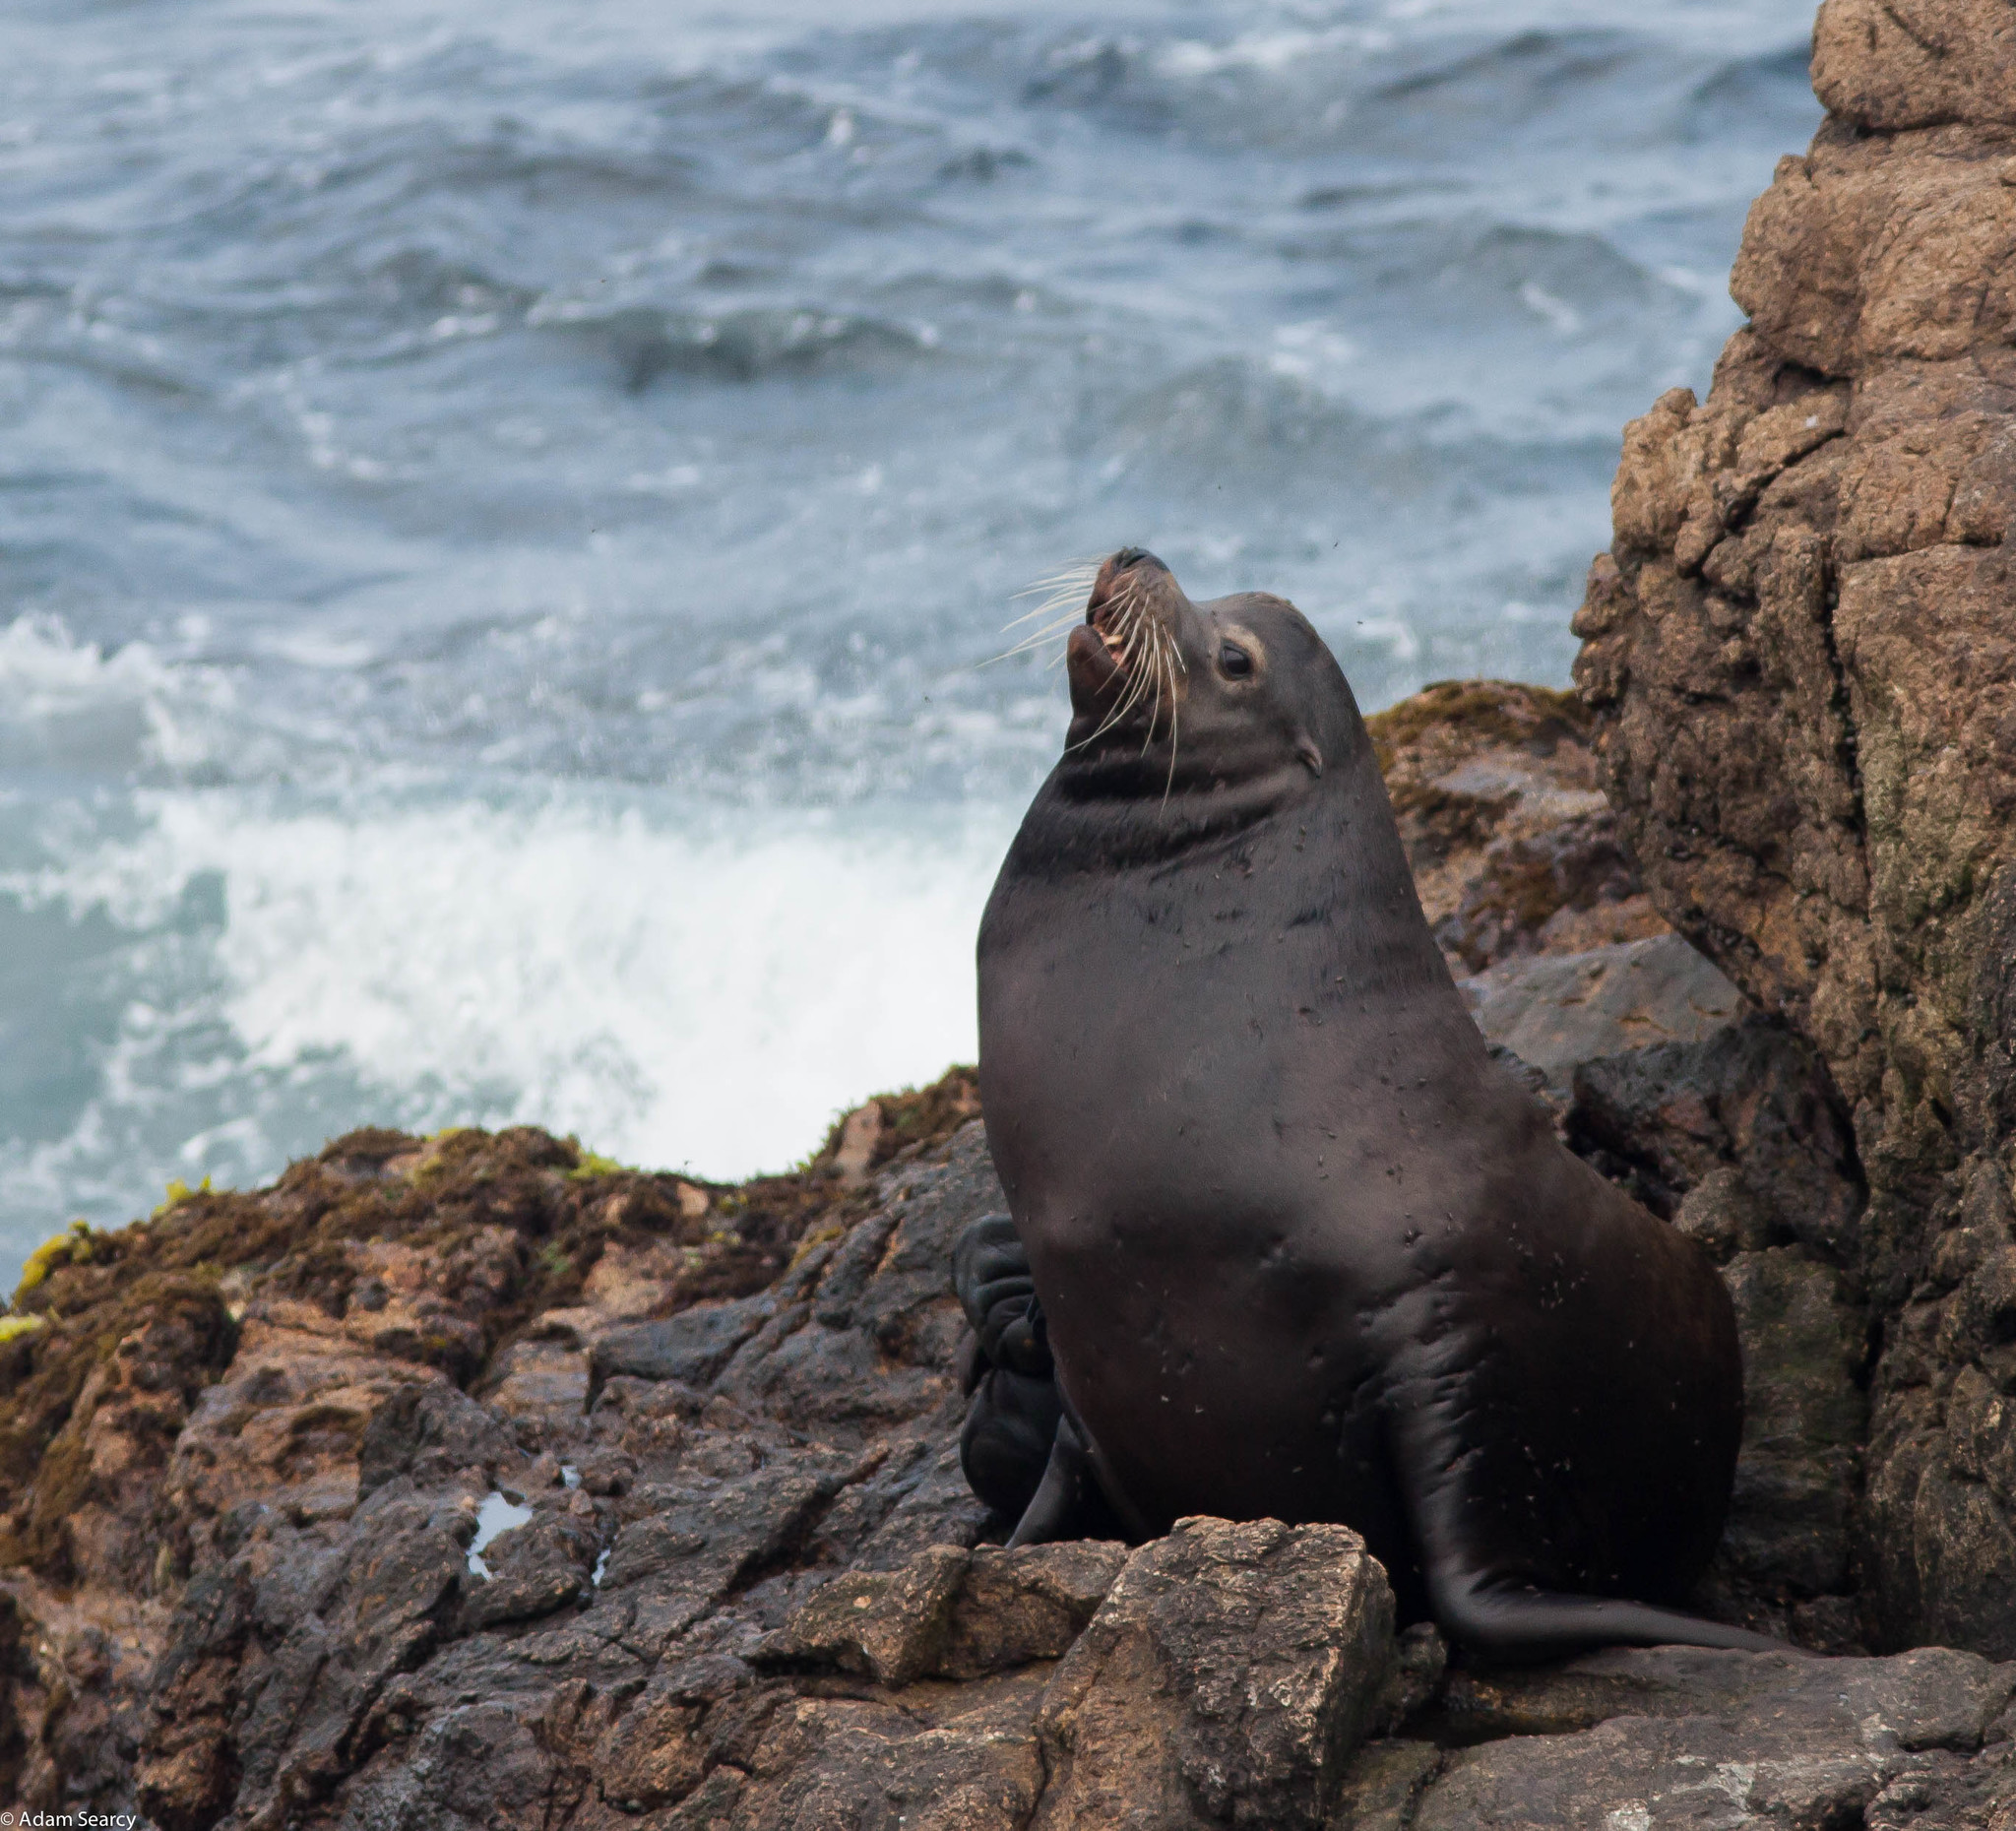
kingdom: Animalia
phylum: Chordata
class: Mammalia
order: Carnivora
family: Otariidae
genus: Zalophus
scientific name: Zalophus californianus
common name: California sea lion
